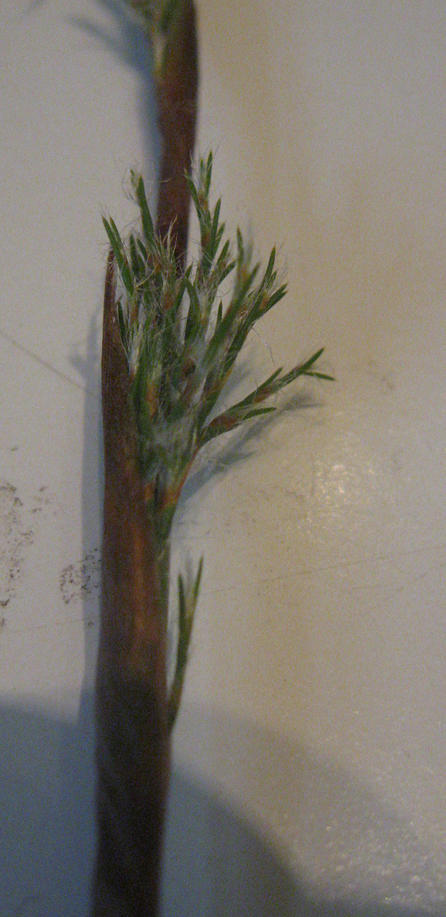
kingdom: Plantae
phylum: Tracheophyta
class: Liliopsida
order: Poales
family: Restionaceae
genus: Thamnochortus
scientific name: Thamnochortus fruticosus
